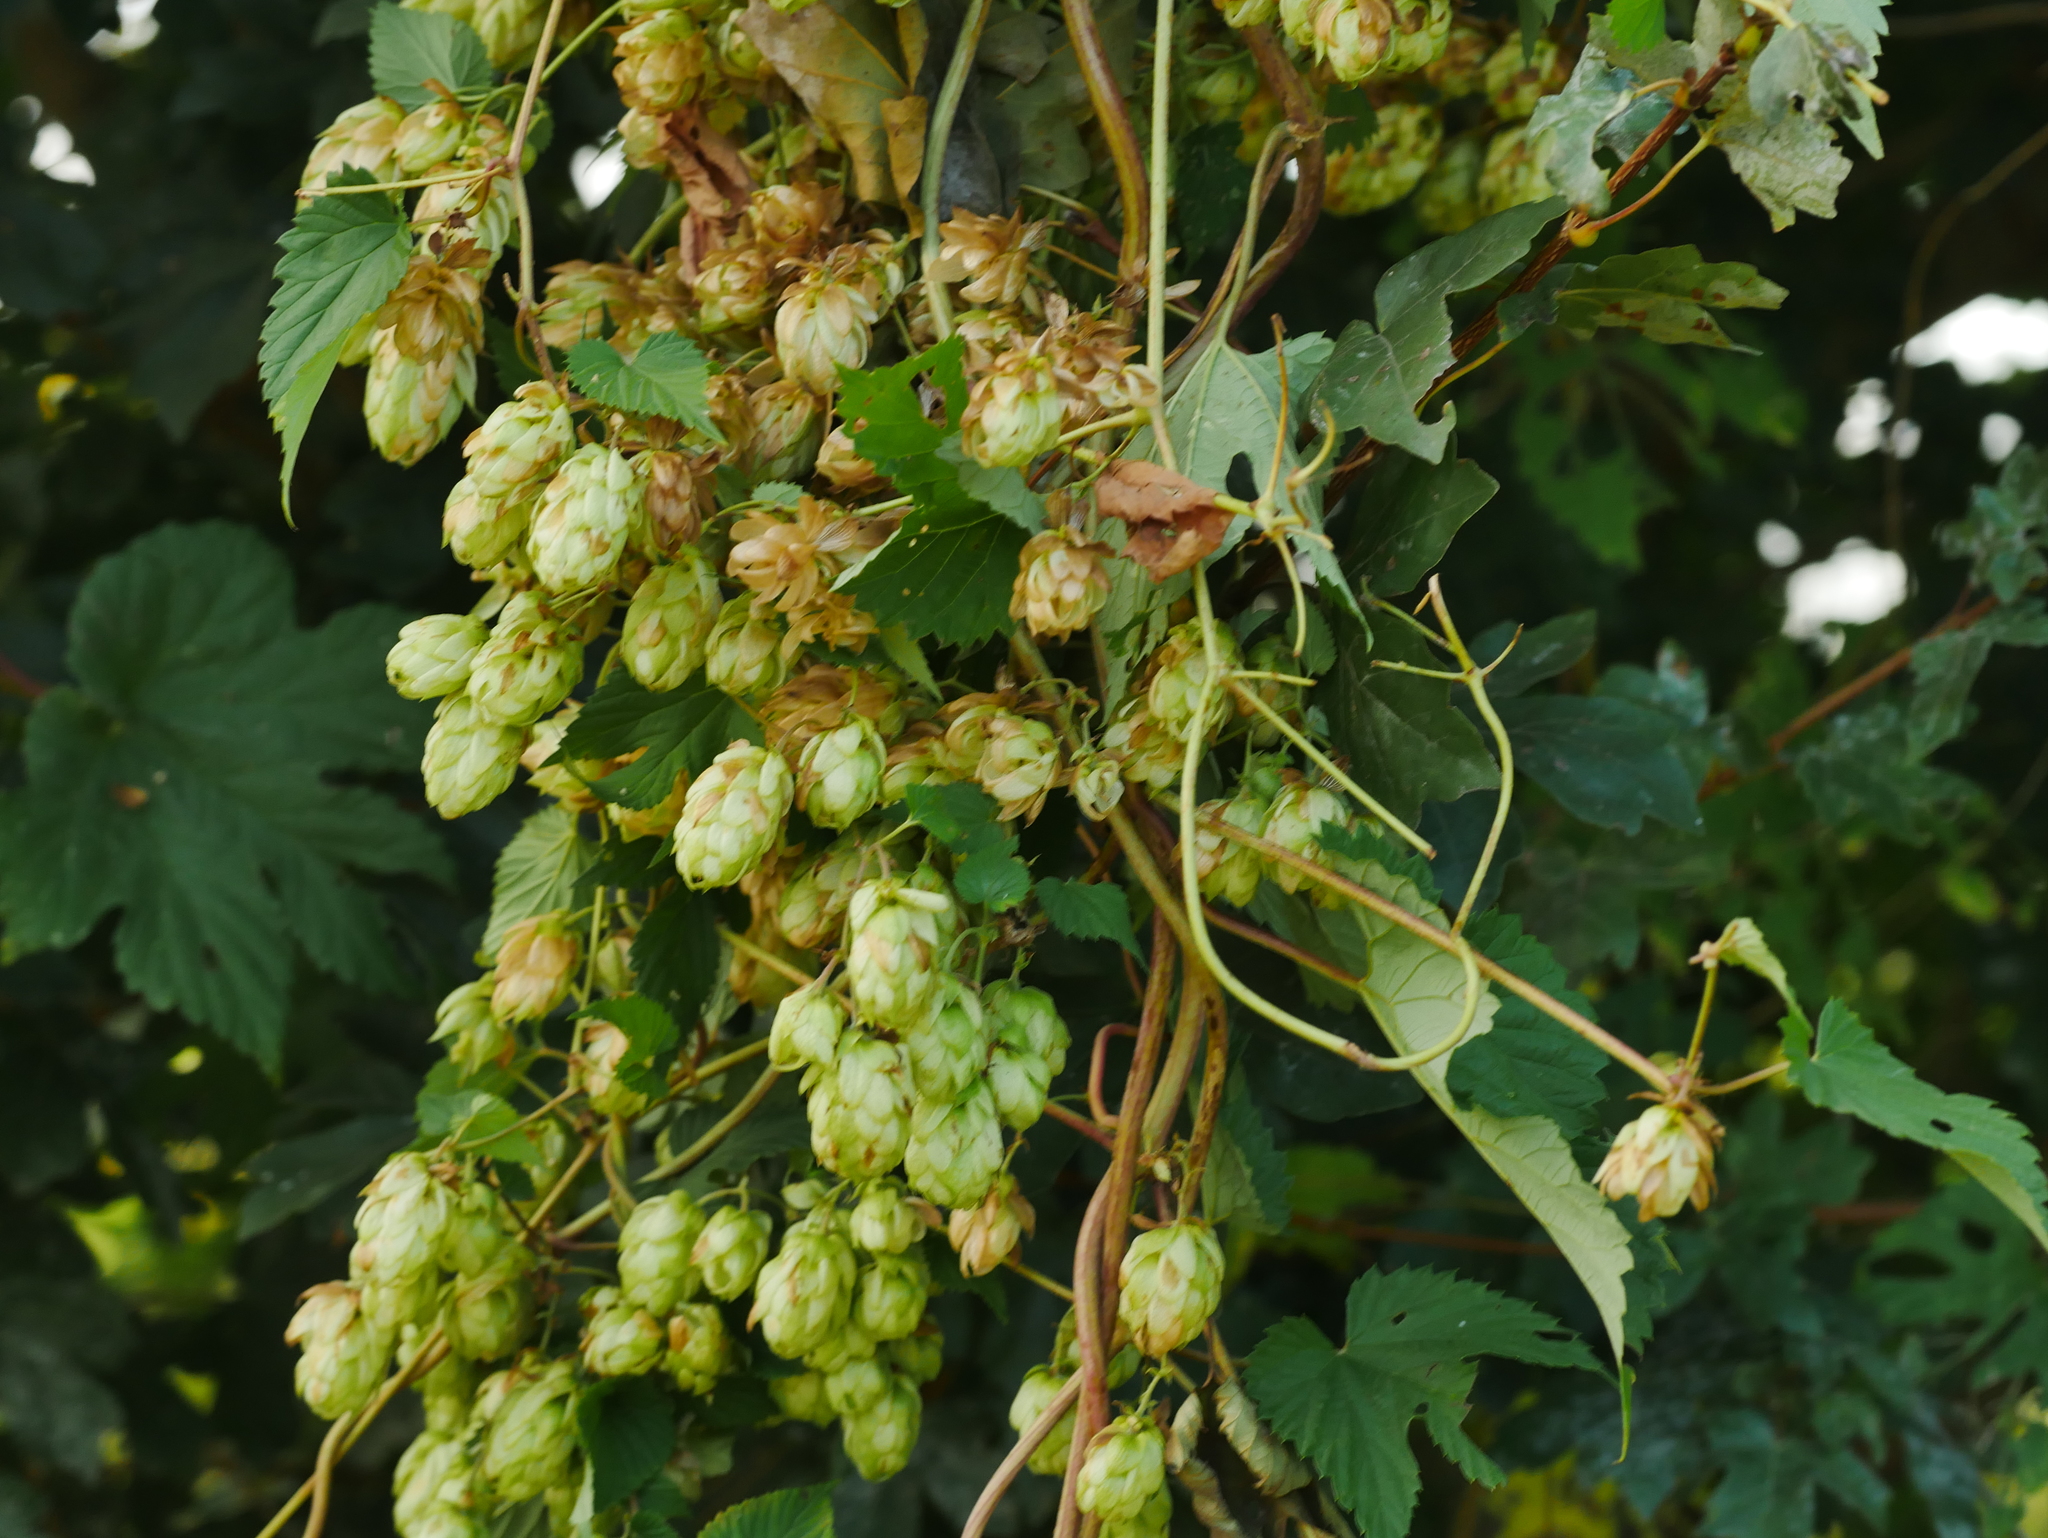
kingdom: Plantae
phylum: Tracheophyta
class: Magnoliopsida
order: Rosales
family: Cannabaceae
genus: Humulus
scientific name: Humulus lupulus
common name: Hop
